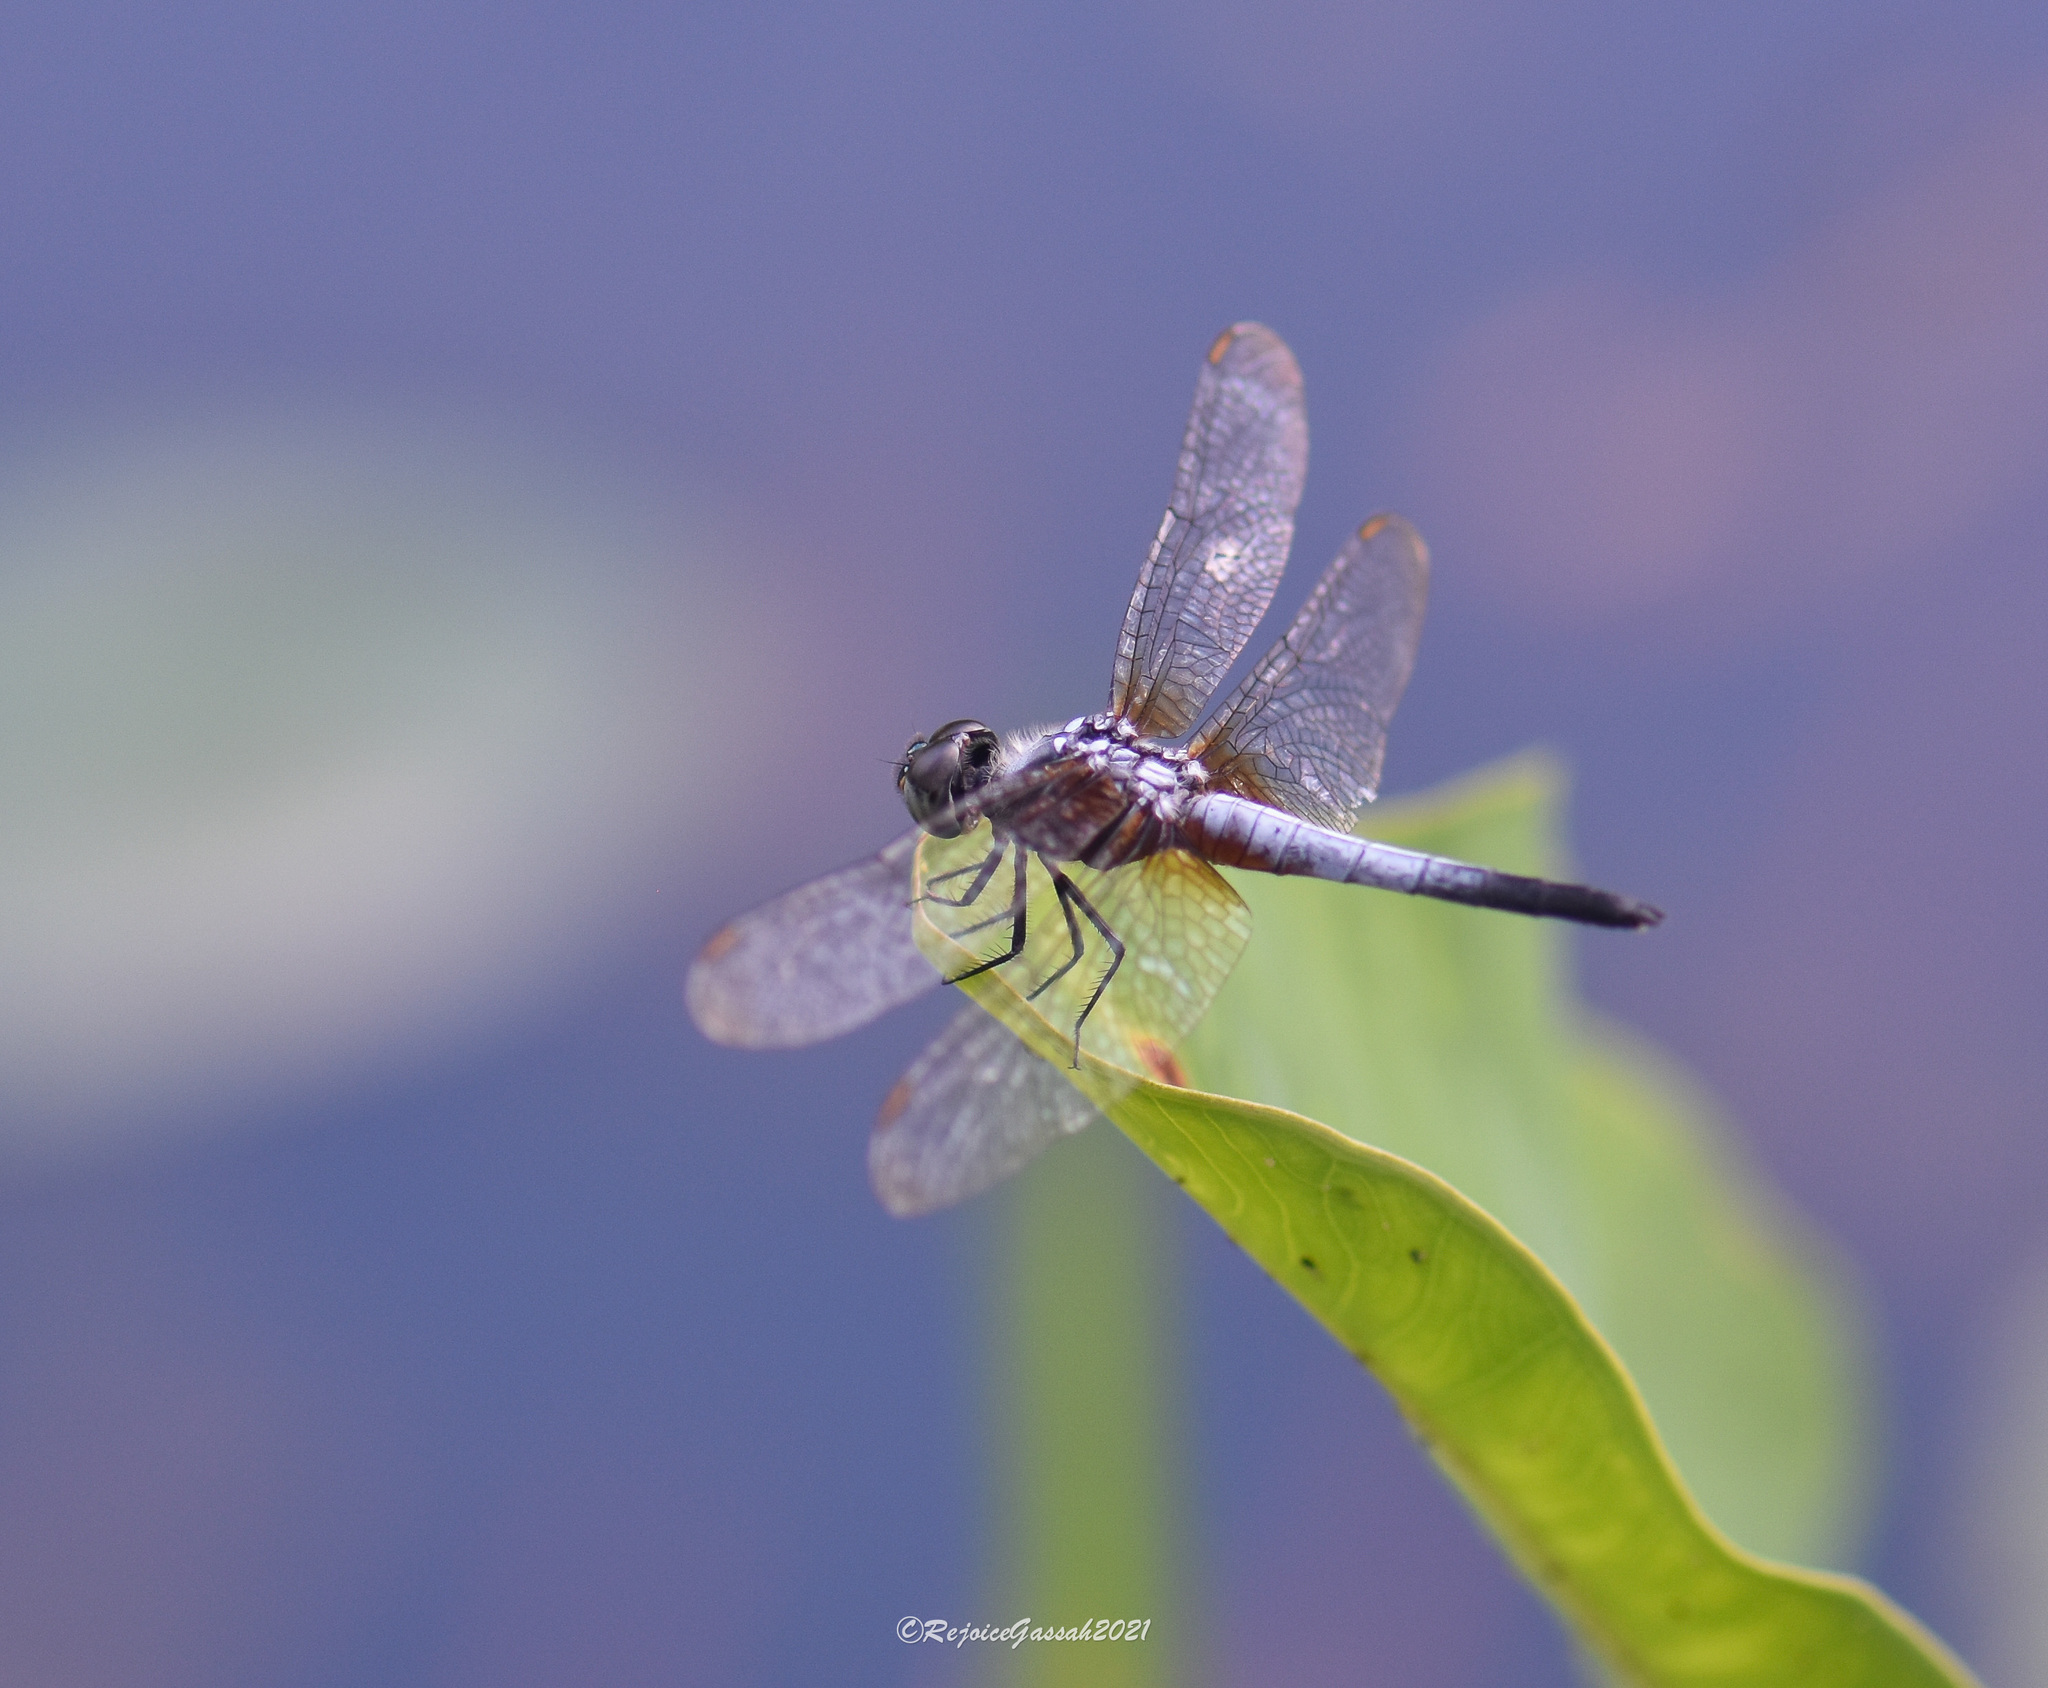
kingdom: Animalia
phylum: Arthropoda
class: Insecta
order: Odonata
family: Libellulidae
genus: Brachydiplax
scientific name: Brachydiplax chalybea
